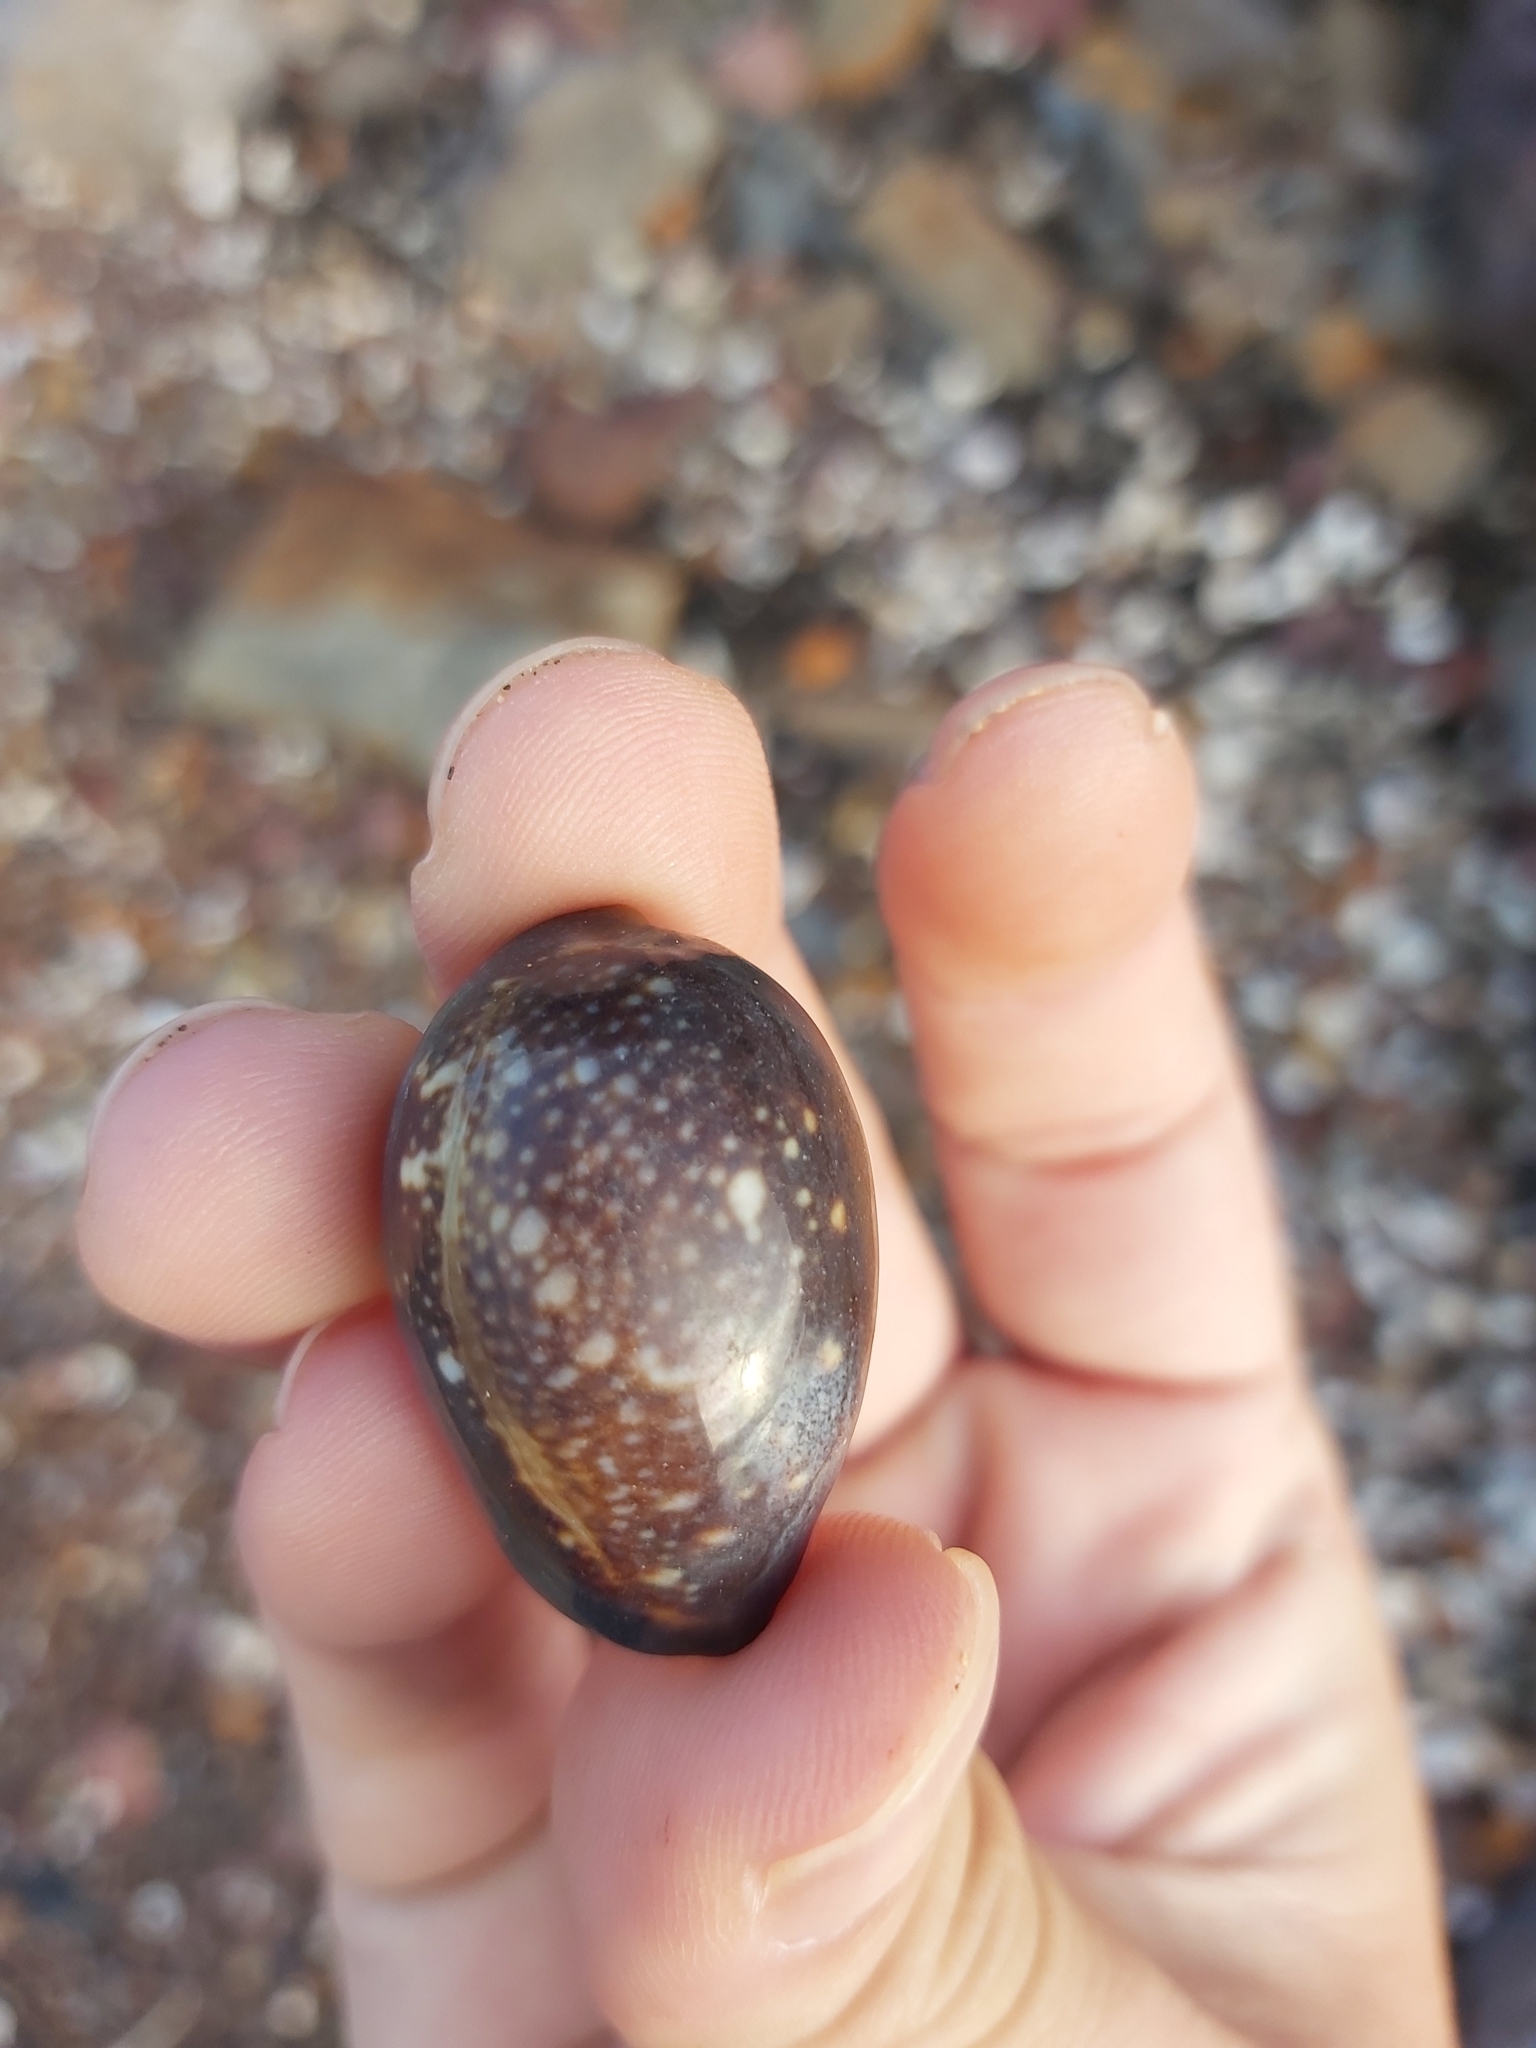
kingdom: Animalia
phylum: Mollusca
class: Gastropoda
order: Littorinimorpha
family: Cypraeidae
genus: Monetaria
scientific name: Monetaria caputserpentis
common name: Serpent's head cowrie
